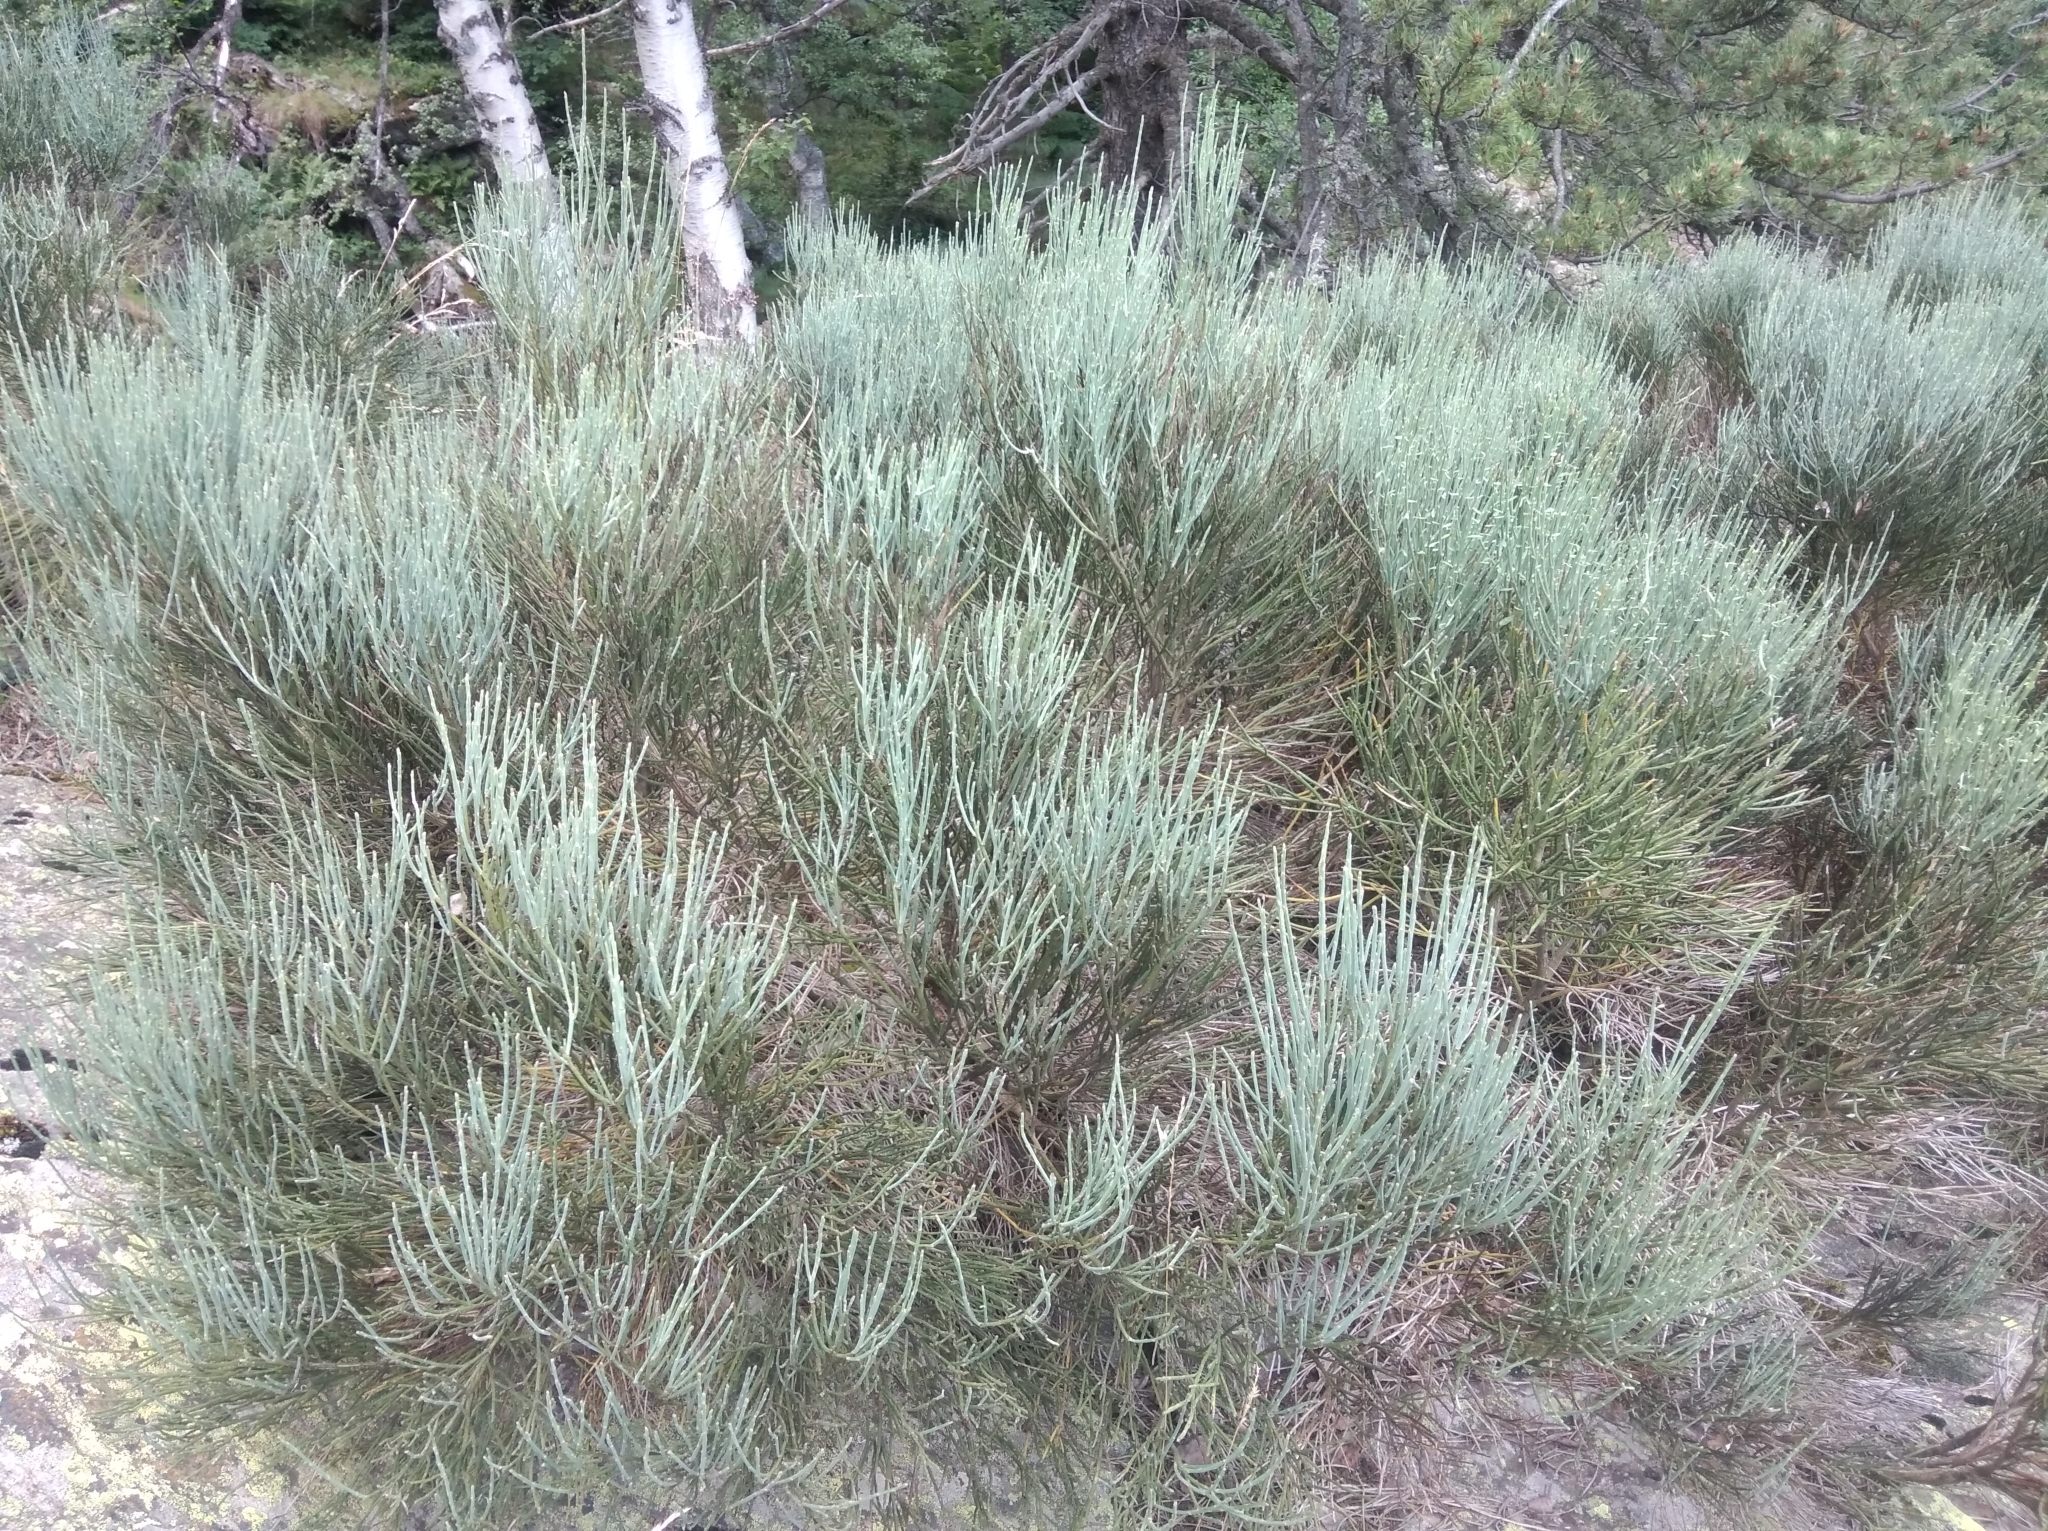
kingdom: Plantae
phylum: Tracheophyta
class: Magnoliopsida
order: Fabales
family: Fabaceae
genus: Cytisus
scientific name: Cytisus oromediterraneus
